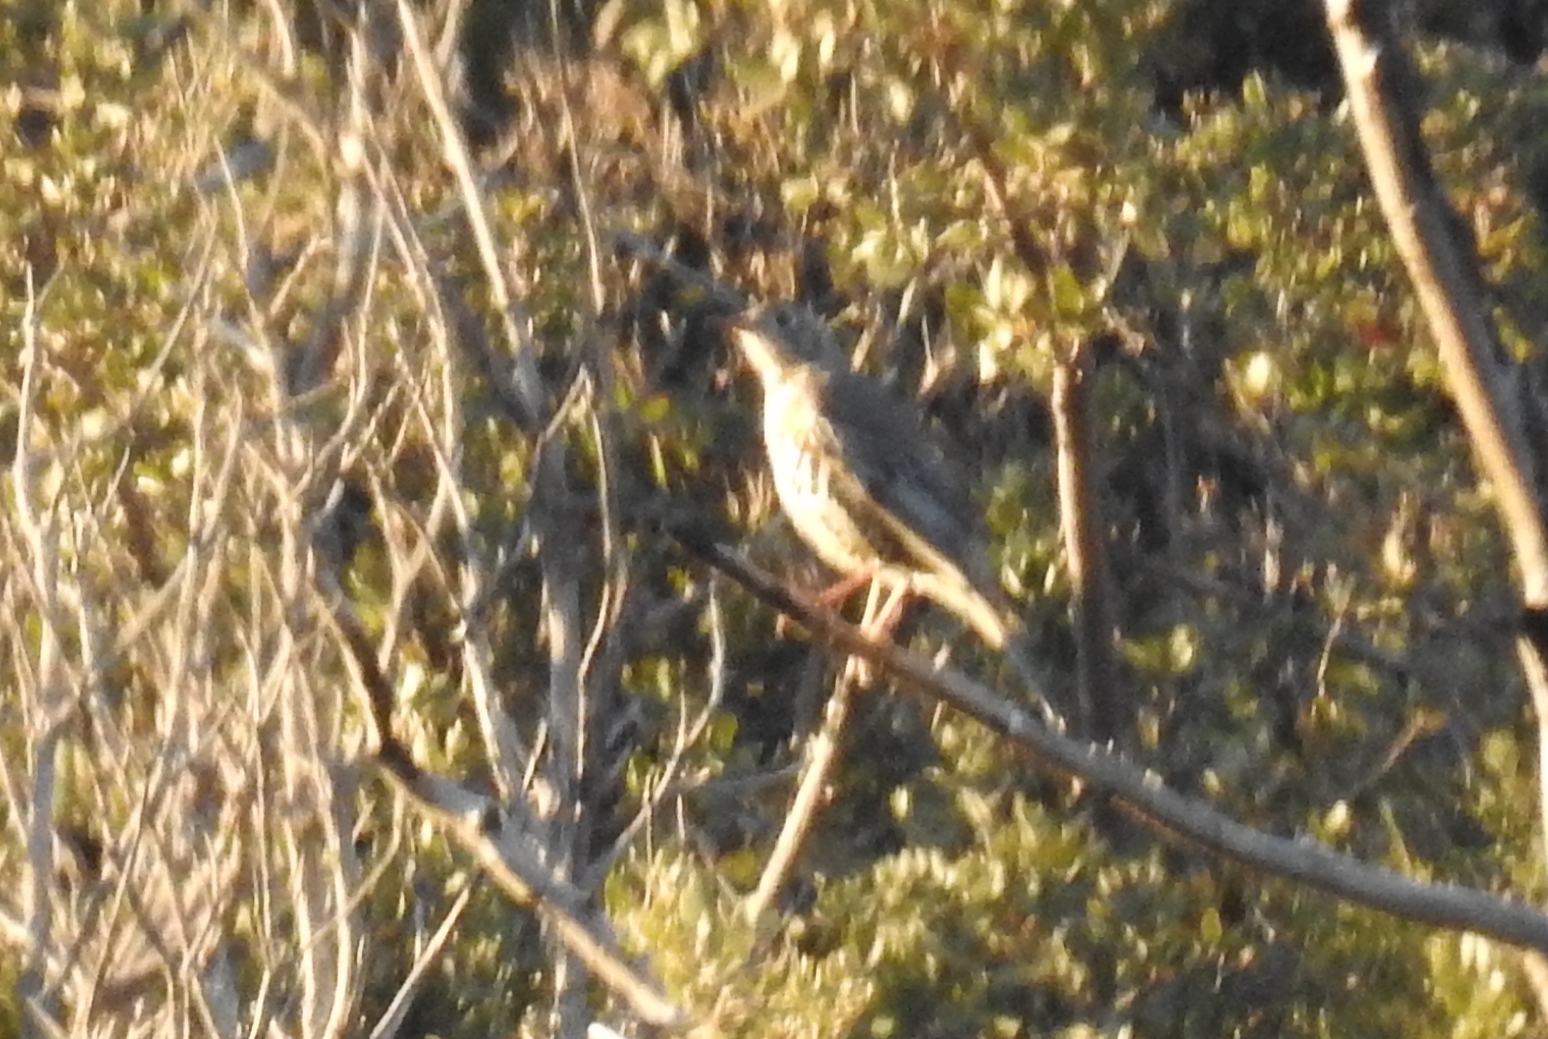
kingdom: Animalia
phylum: Chordata
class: Aves
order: Passeriformes
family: Turdidae
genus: Turdus
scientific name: Turdus viscivorus
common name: Mistle thrush
